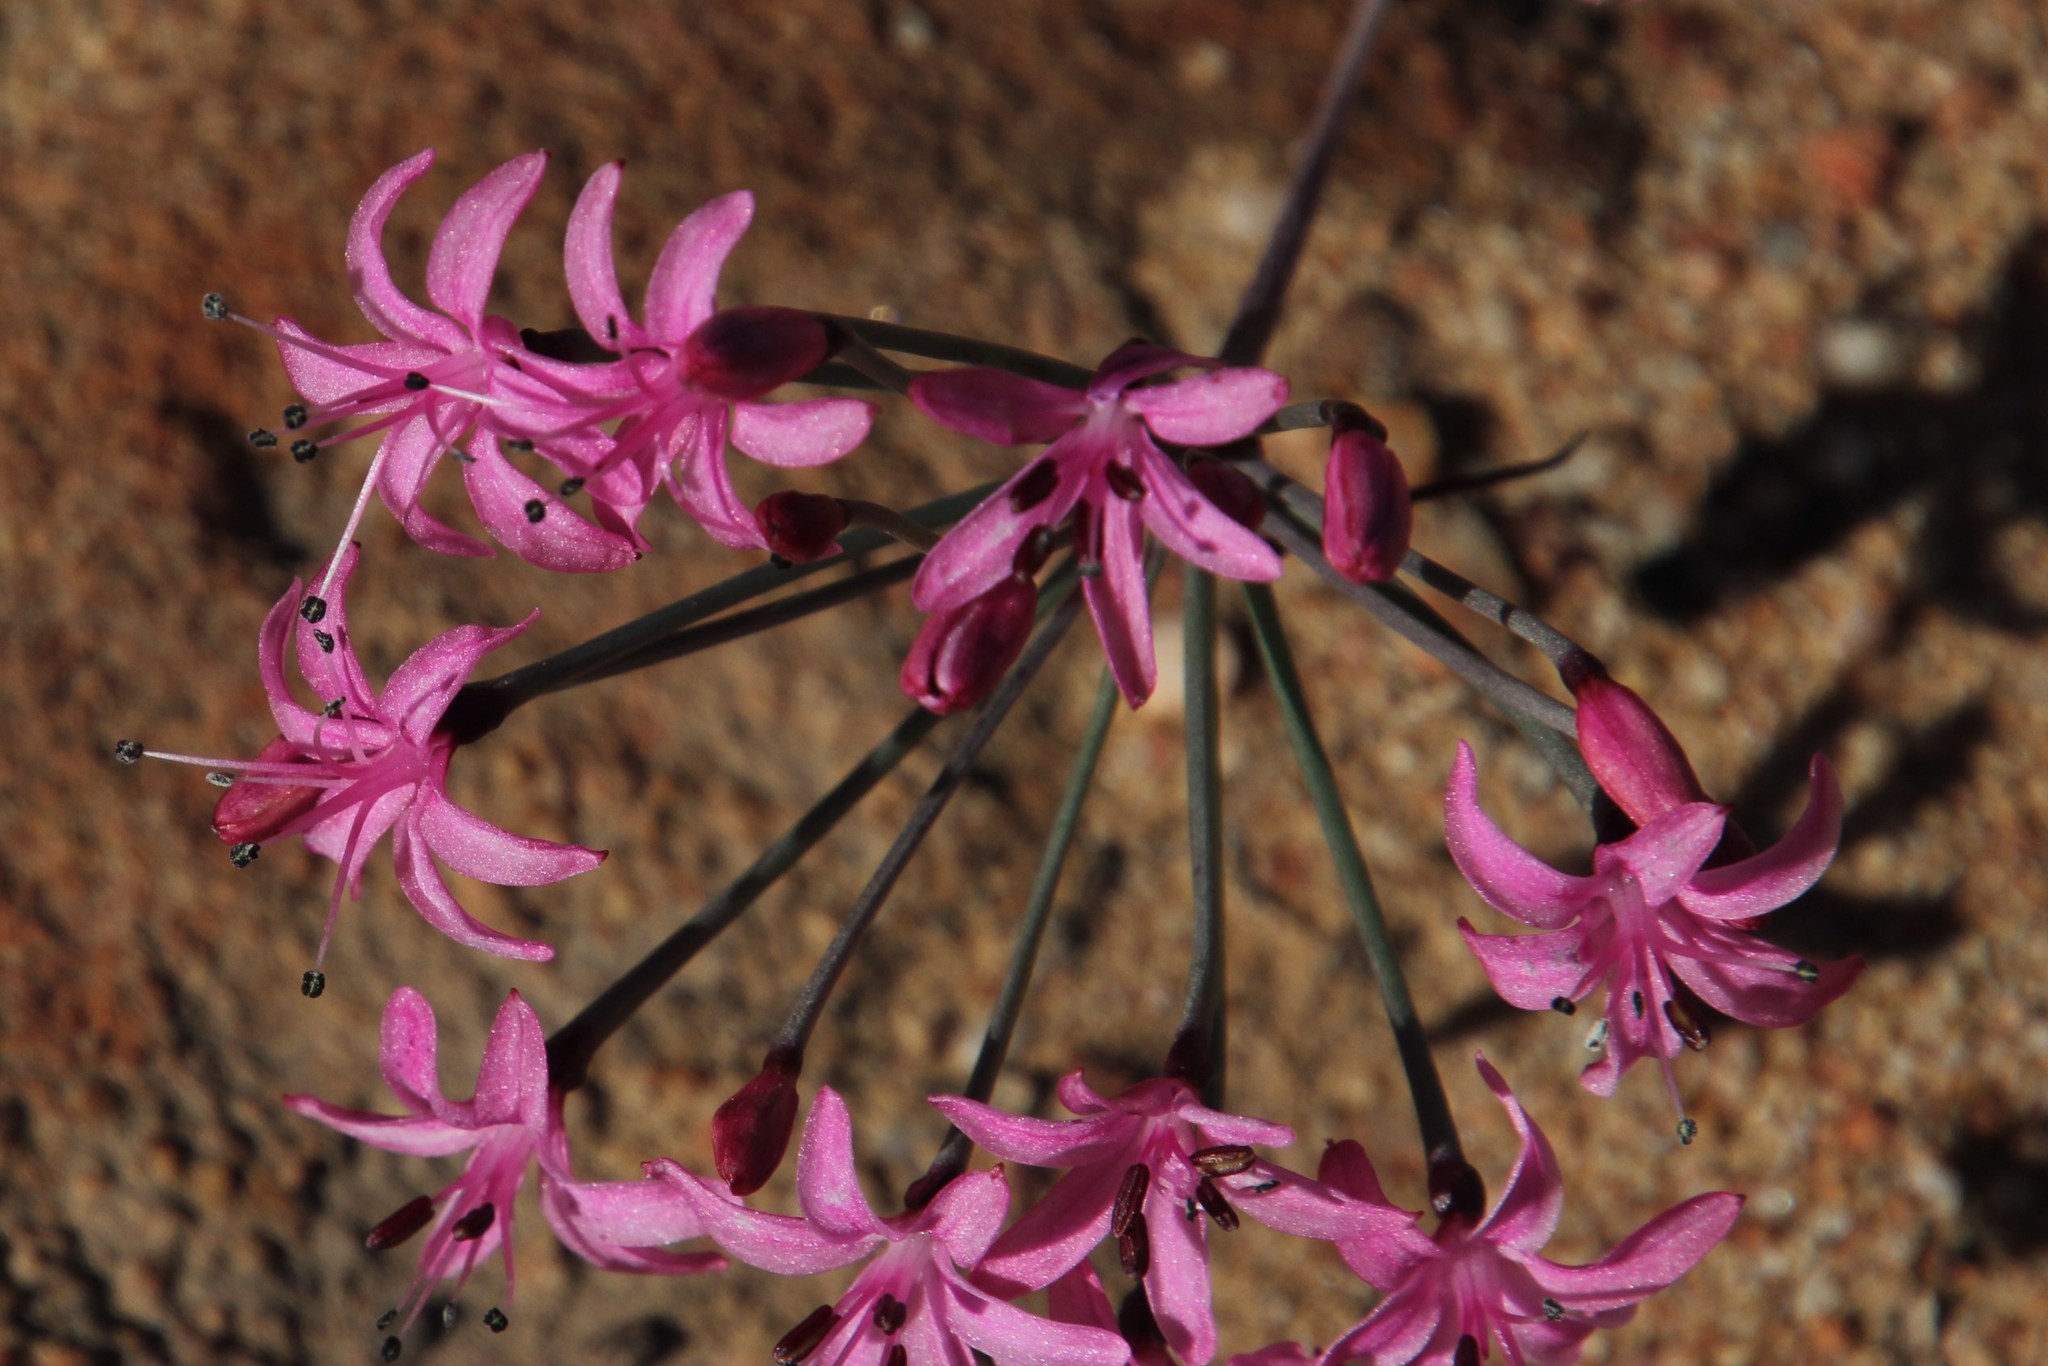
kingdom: Plantae
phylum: Tracheophyta
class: Liliopsida
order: Asparagales
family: Amaryllidaceae
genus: Hessea
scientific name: Hessea breviflora
